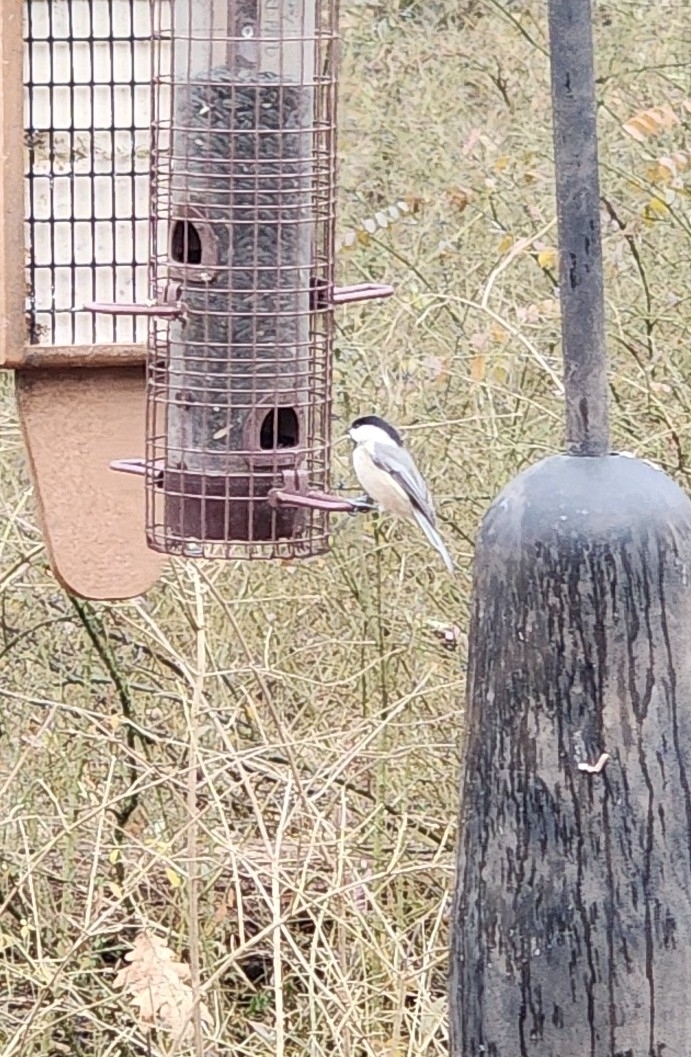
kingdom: Animalia
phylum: Chordata
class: Aves
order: Passeriformes
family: Paridae
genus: Poecile
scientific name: Poecile carolinensis
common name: Carolina chickadee
